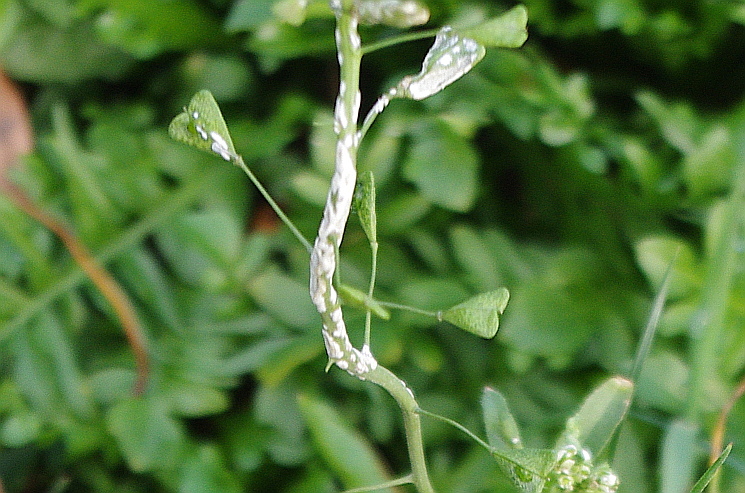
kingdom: Chromista
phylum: Oomycota
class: Peronosporea
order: Albuginales
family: Albuginaceae
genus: Albugo
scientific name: Albugo candida
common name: Crucifer white blister
